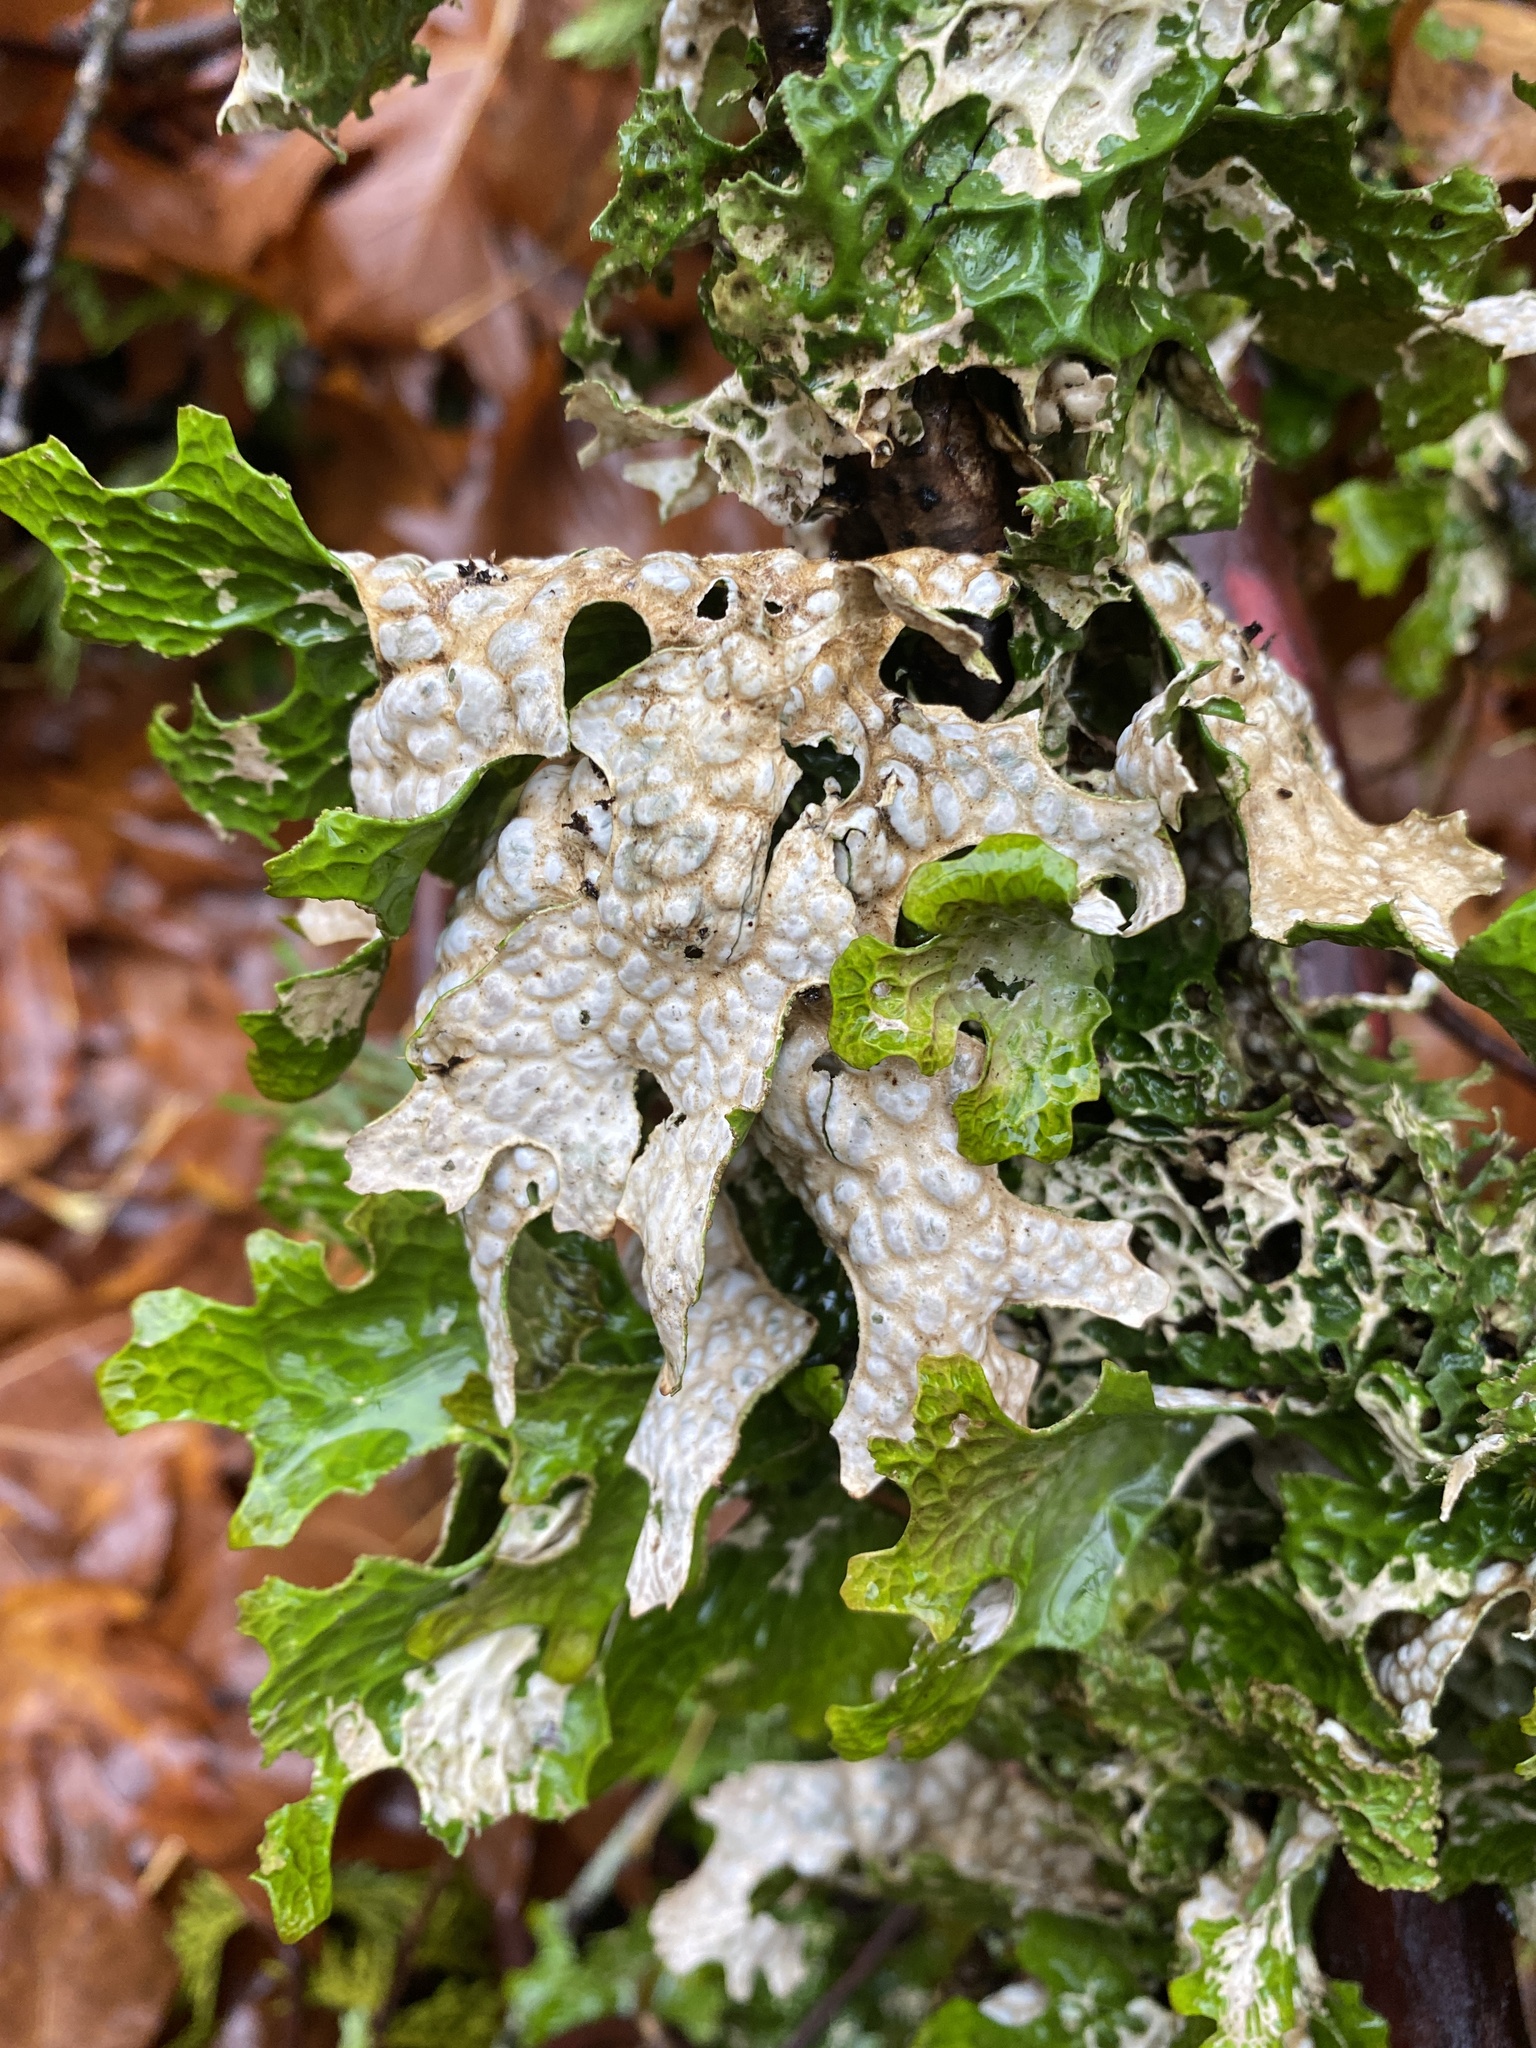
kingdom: Fungi
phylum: Ascomycota
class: Lecanoromycetes
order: Peltigerales
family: Lobariaceae
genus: Lobaria
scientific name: Lobaria pulmonaria
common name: Lungwort
